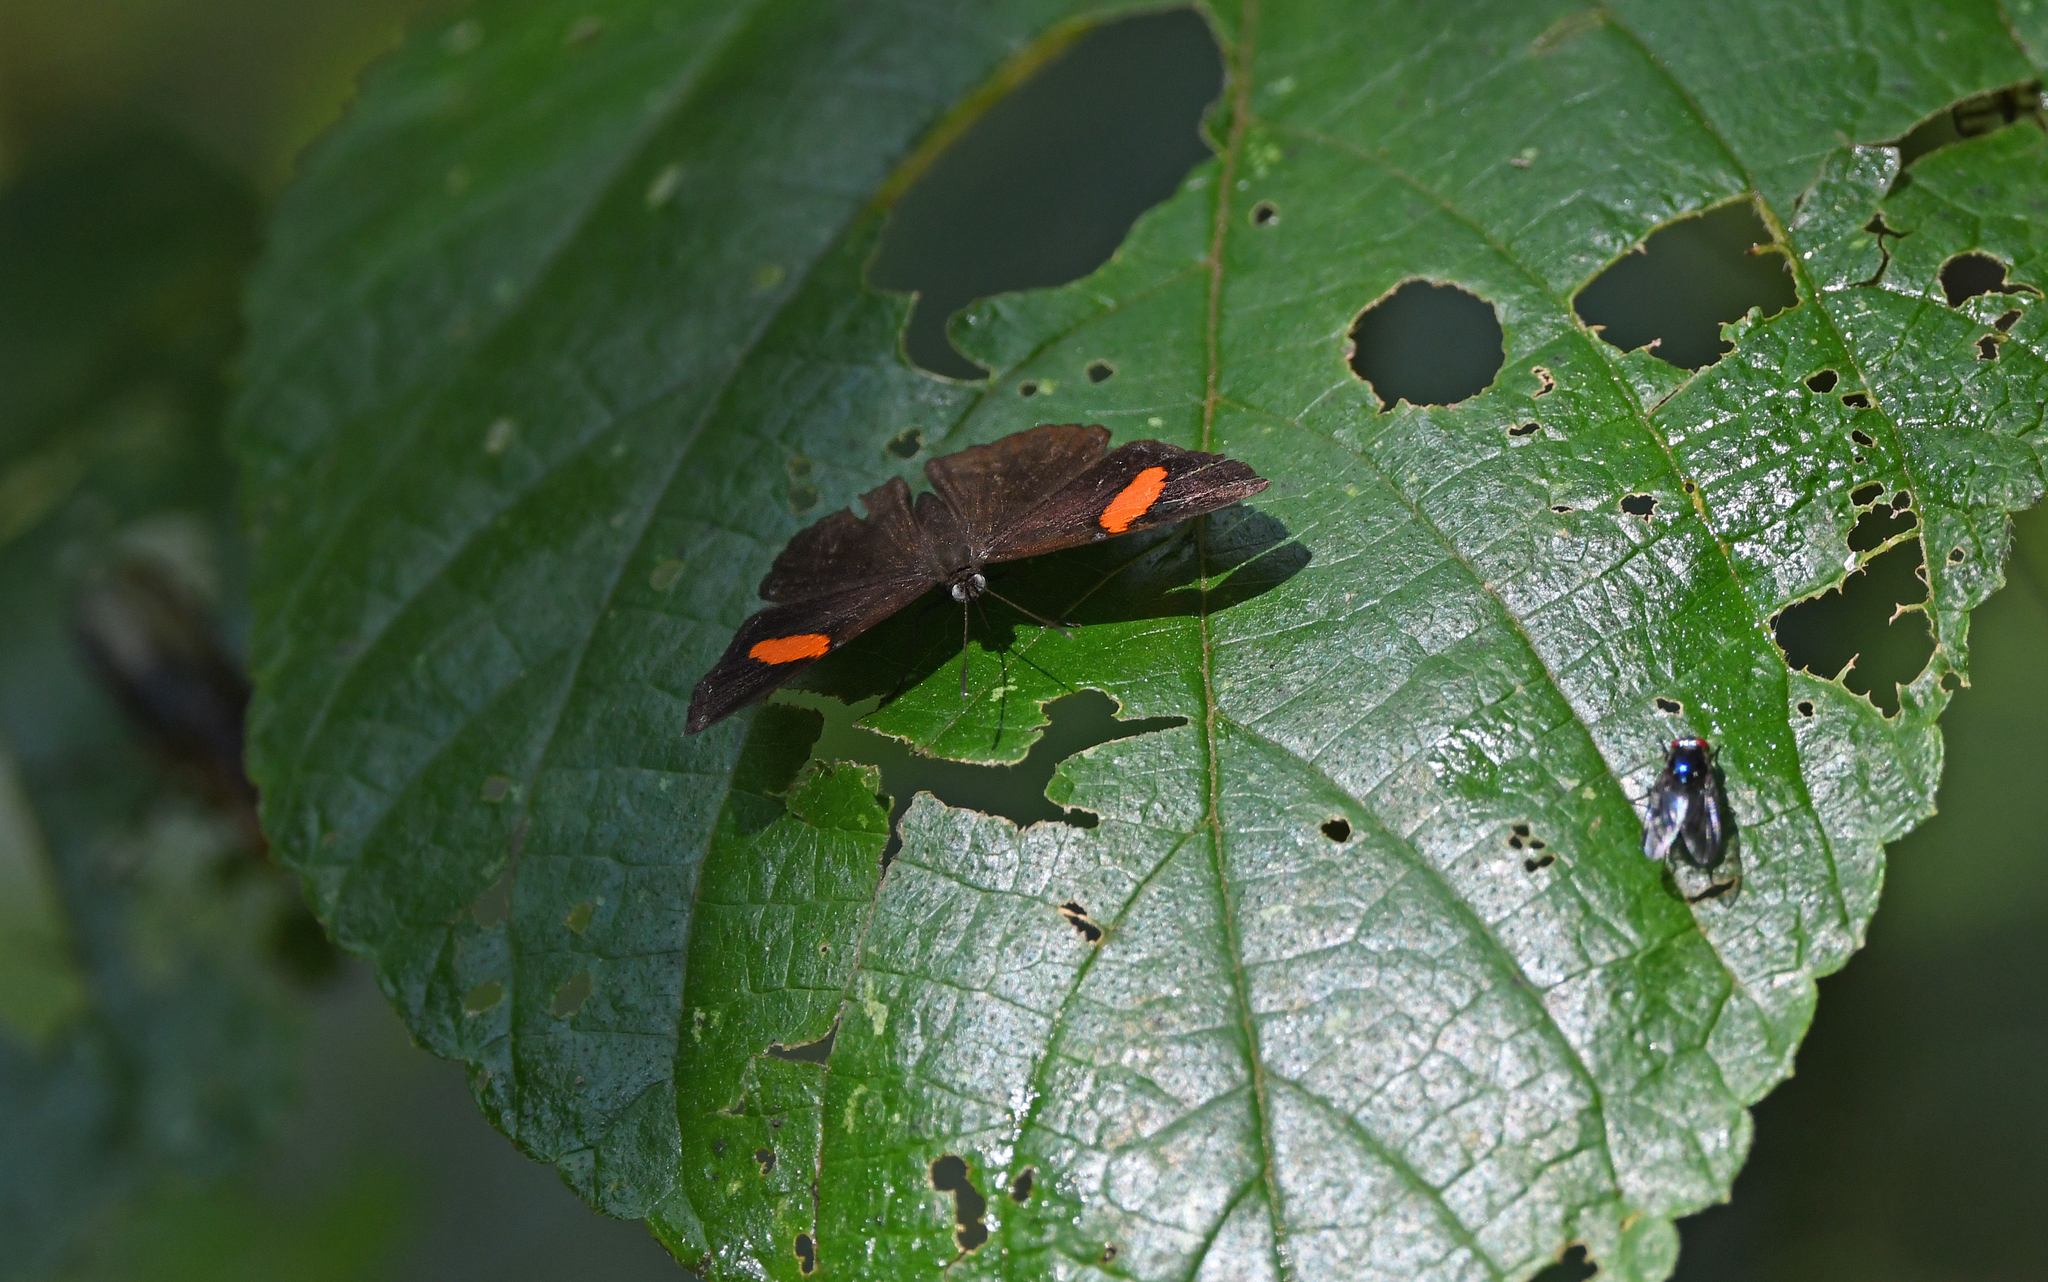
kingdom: Animalia
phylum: Arthropoda
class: Insecta
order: Lepidoptera
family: Riodinidae
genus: Crocozona
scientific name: Crocozona fasciata
